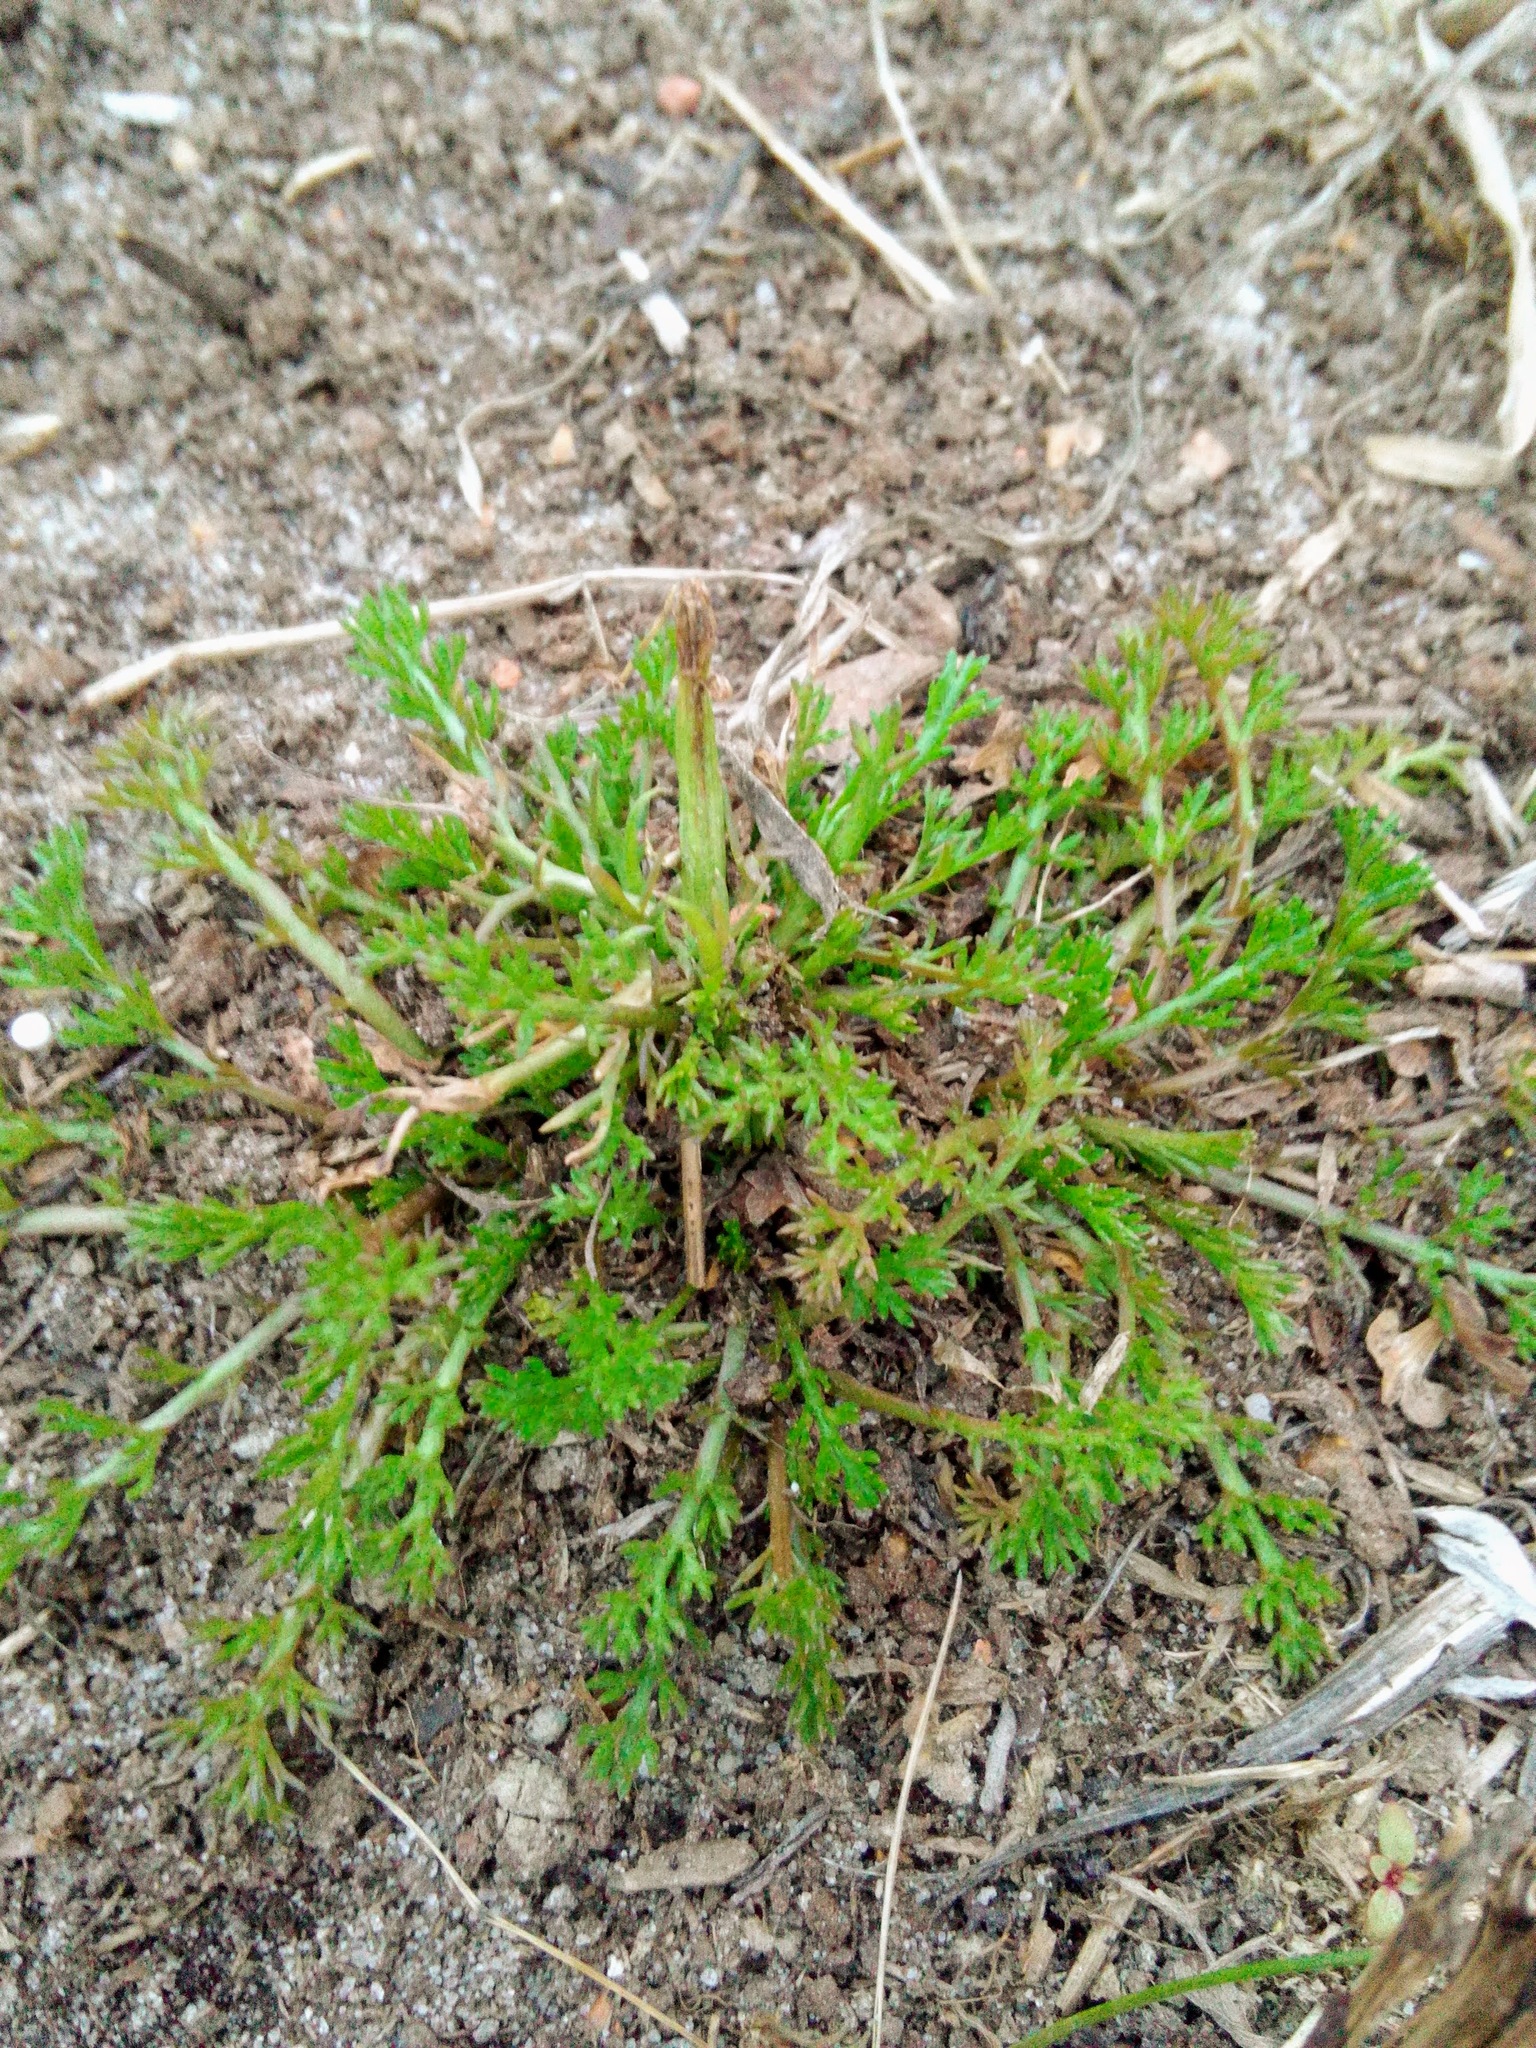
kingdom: Plantae
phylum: Tracheophyta
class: Magnoliopsida
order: Asterales
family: Asteraceae
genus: Matricaria
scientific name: Matricaria discoidea
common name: Disc mayweed
